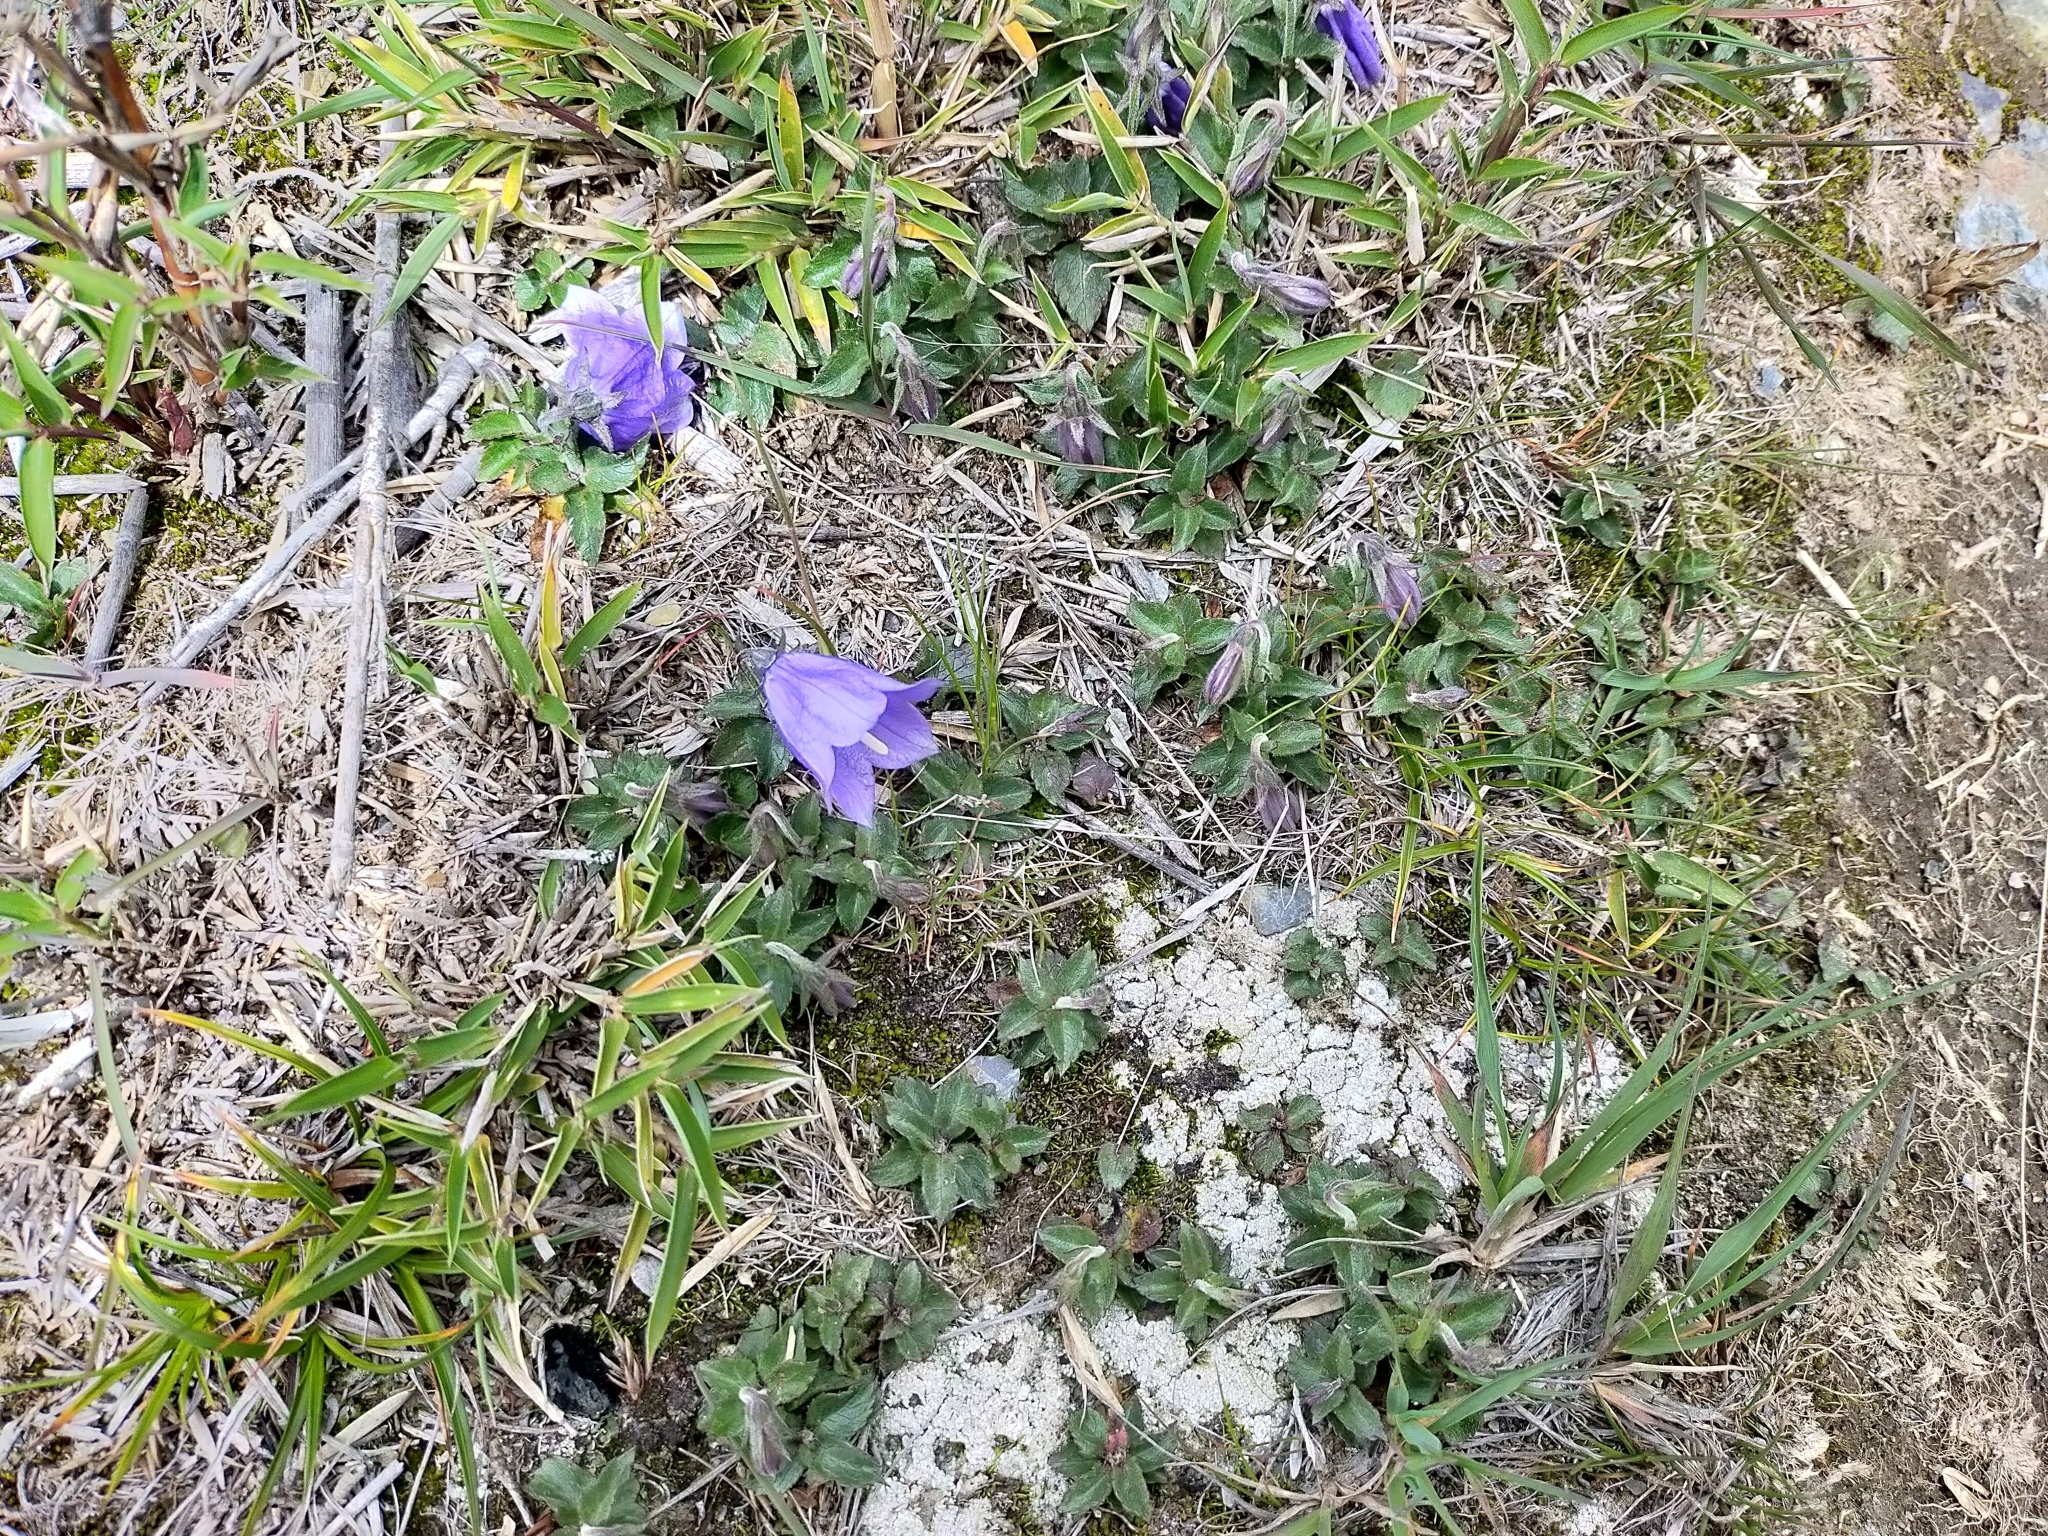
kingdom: Plantae
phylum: Tracheophyta
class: Magnoliopsida
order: Asterales
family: Campanulaceae
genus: Adenophora
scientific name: Adenophora morrisonensis
